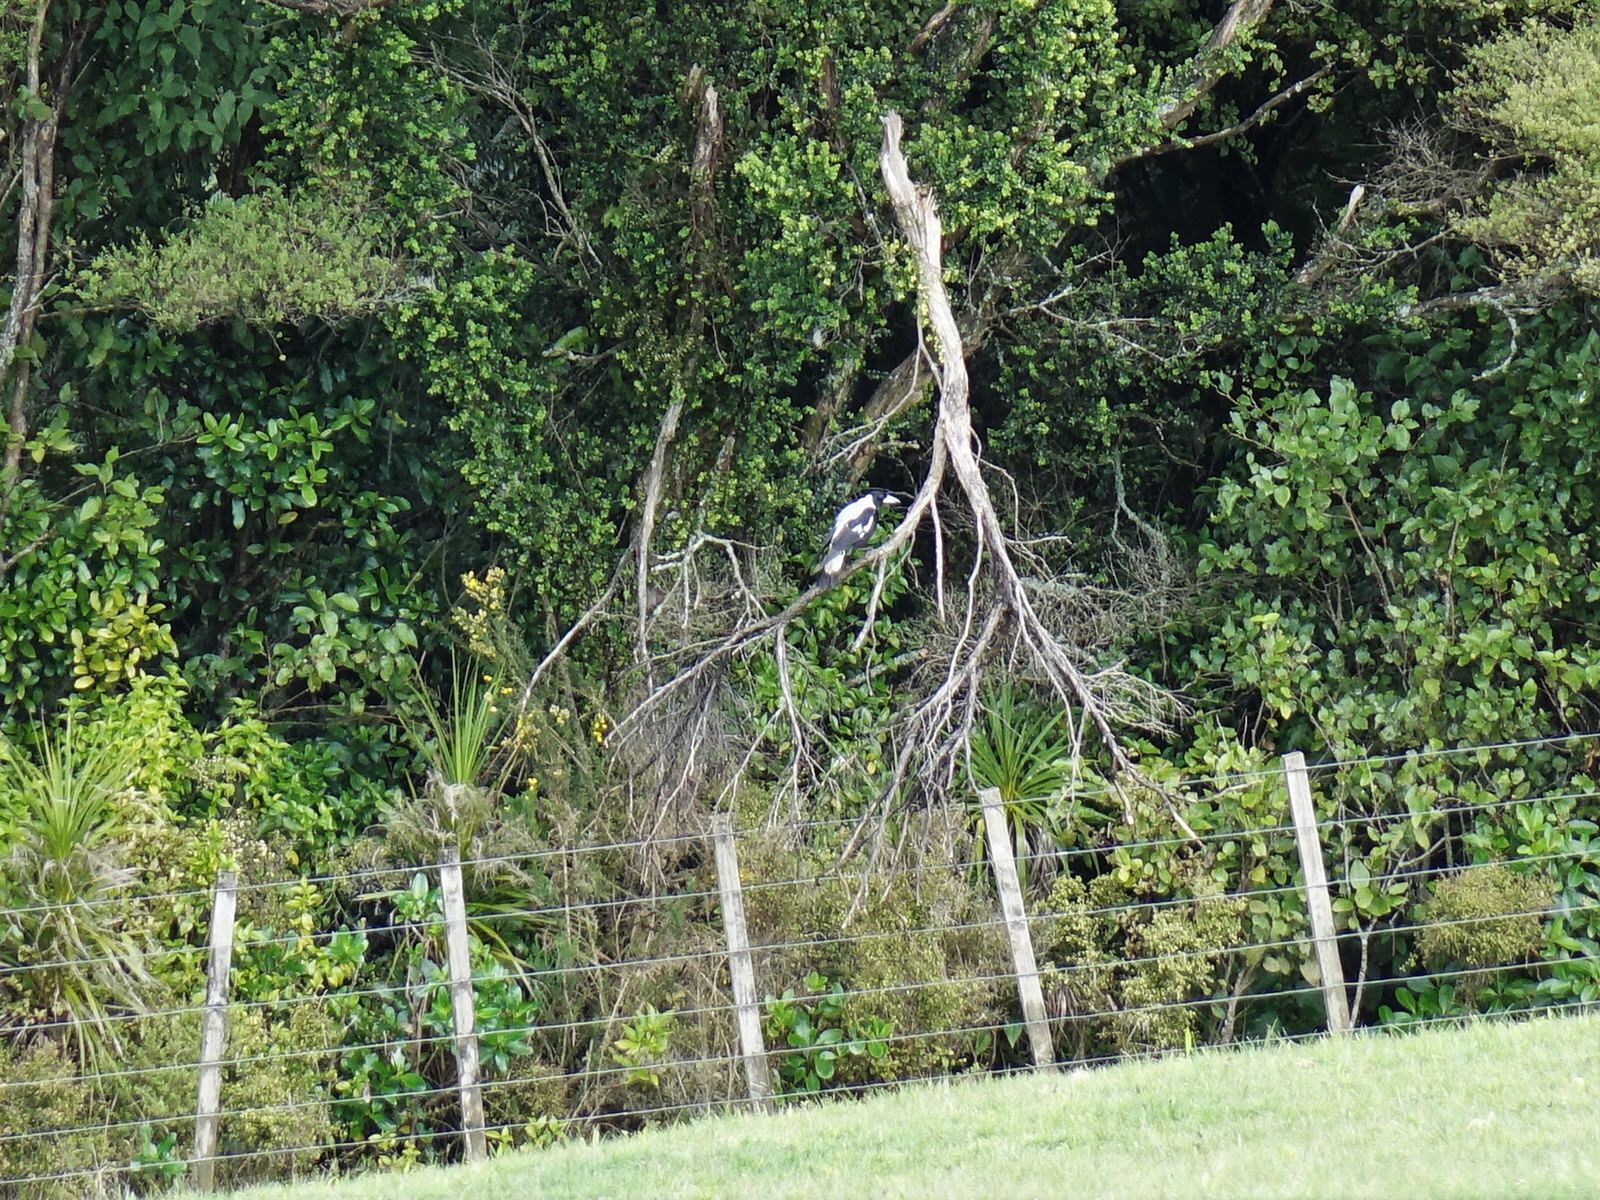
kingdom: Animalia
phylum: Chordata
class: Aves
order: Passeriformes
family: Cracticidae
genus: Gymnorhina
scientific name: Gymnorhina tibicen
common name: Australian magpie
